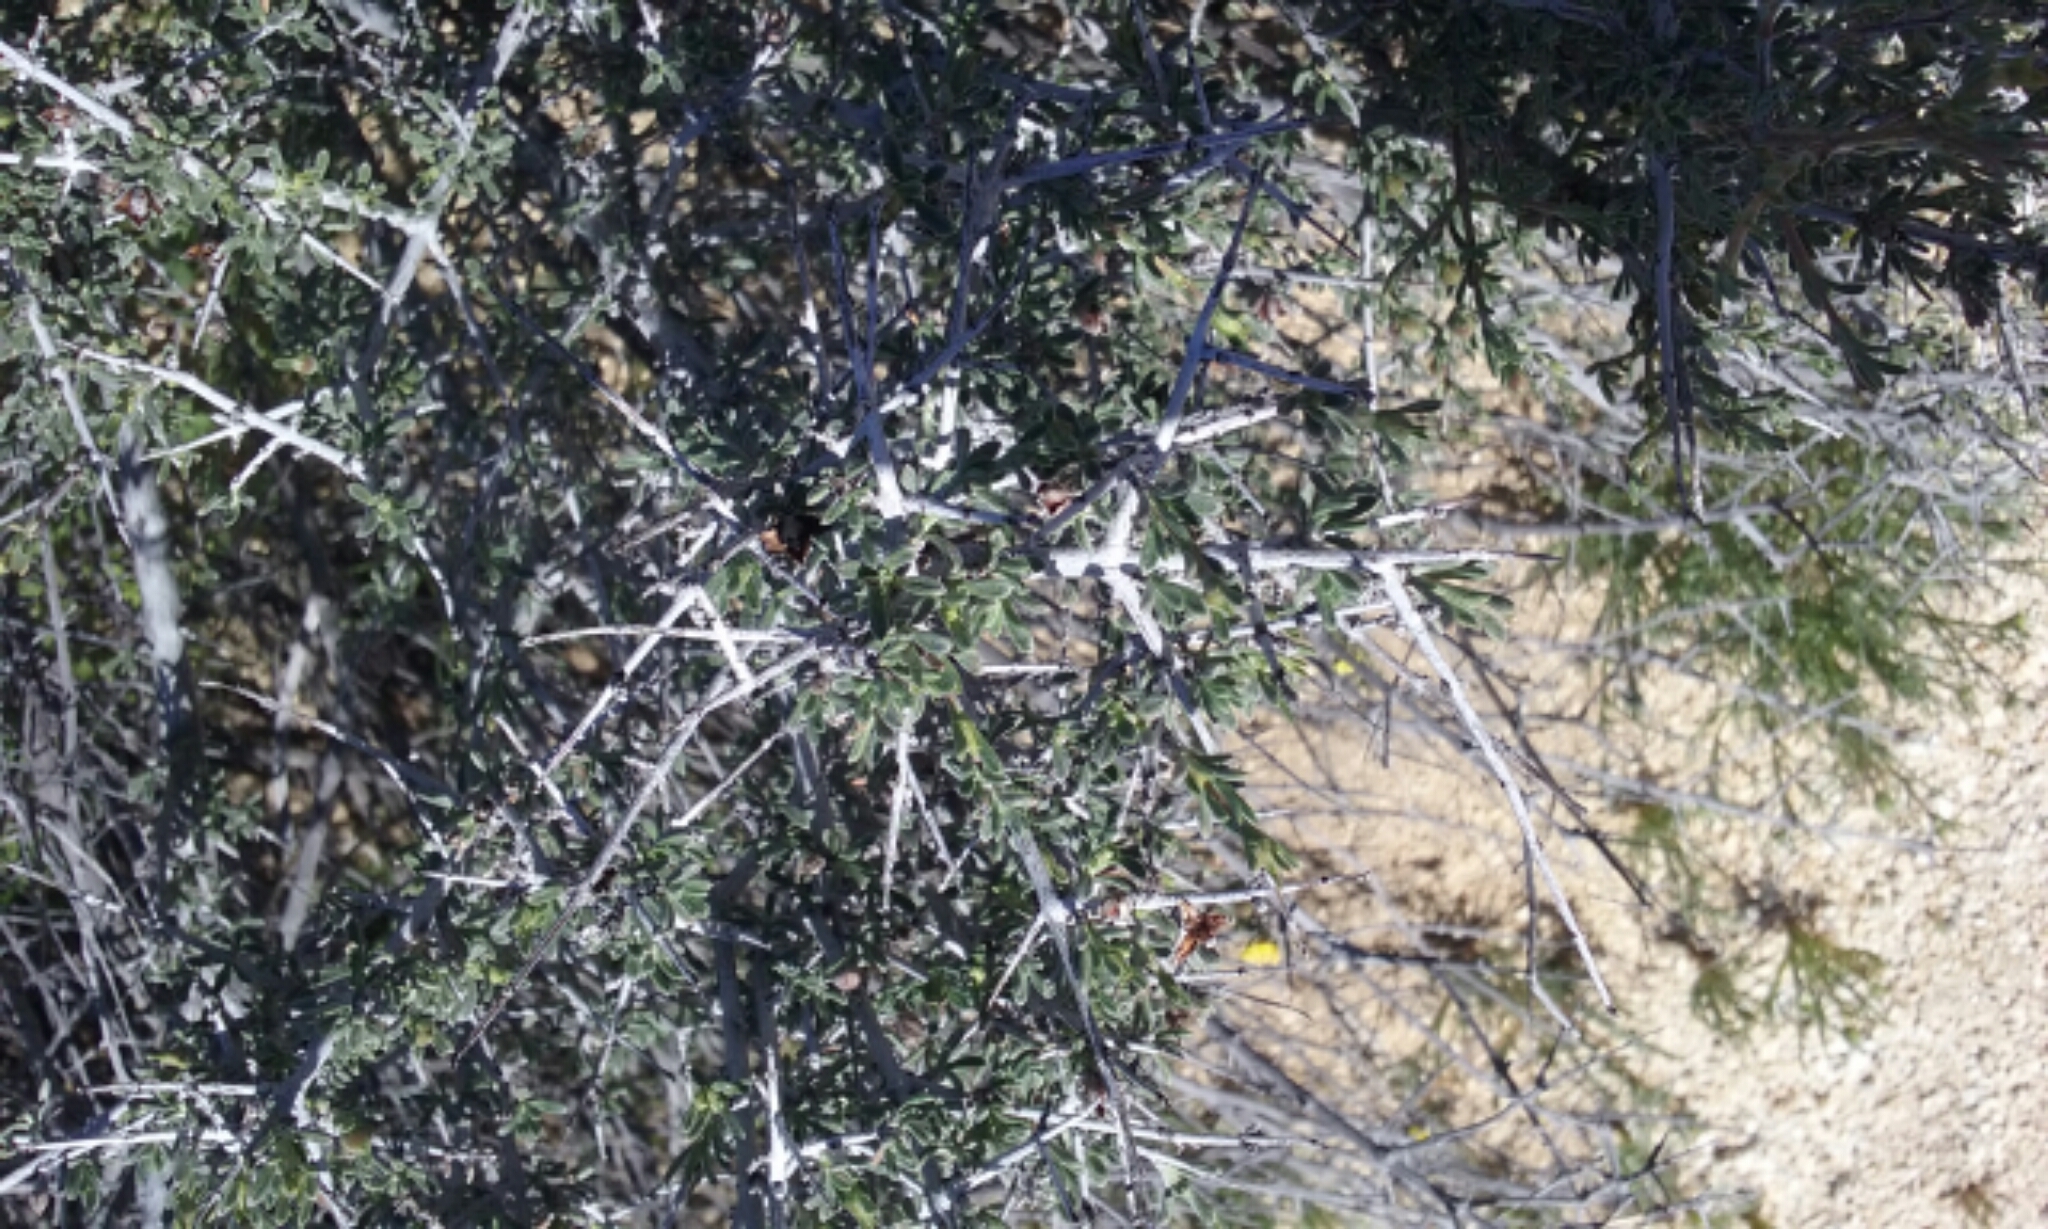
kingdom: Plantae
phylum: Tracheophyta
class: Magnoliopsida
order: Rosales
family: Rosaceae
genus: Coleogyne
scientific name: Coleogyne ramosissima
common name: Blackbrush
